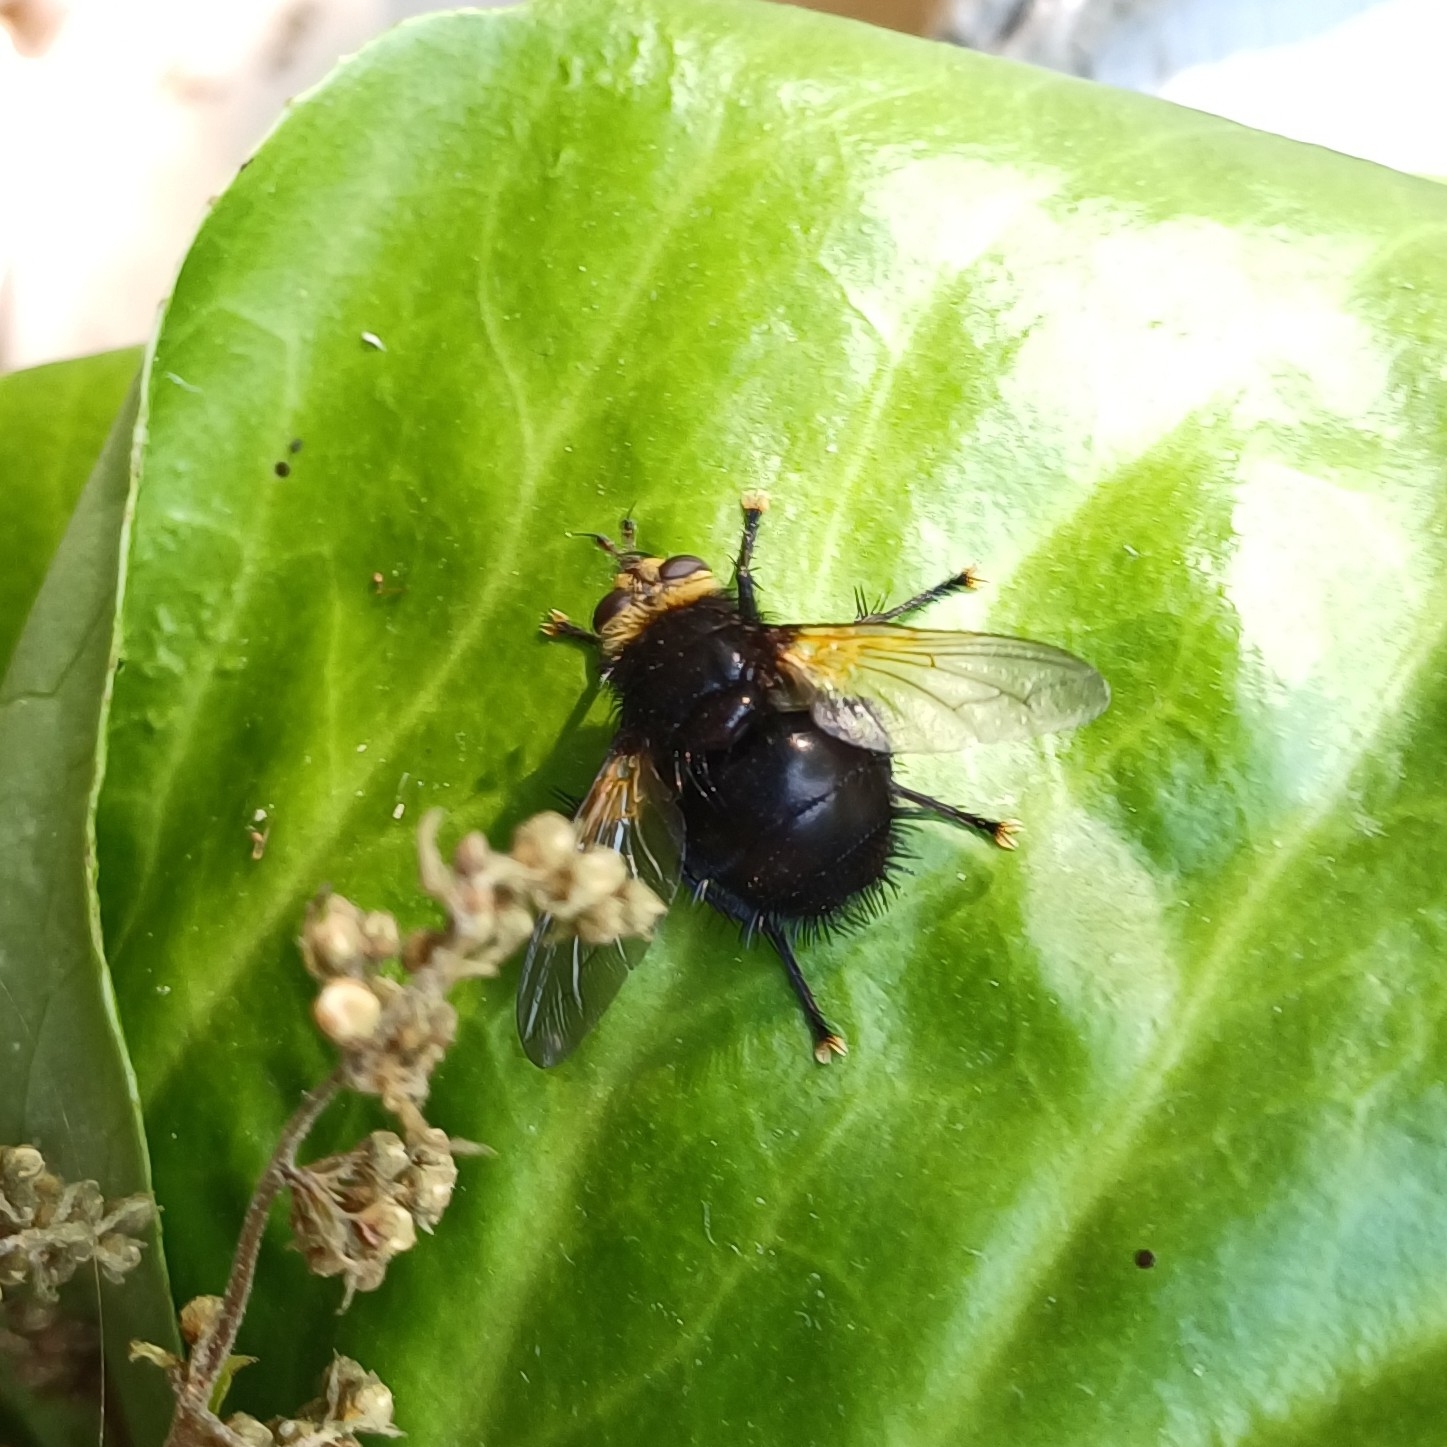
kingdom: Animalia
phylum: Arthropoda
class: Insecta
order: Diptera
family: Tachinidae
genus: Tachina
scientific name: Tachina grossa
